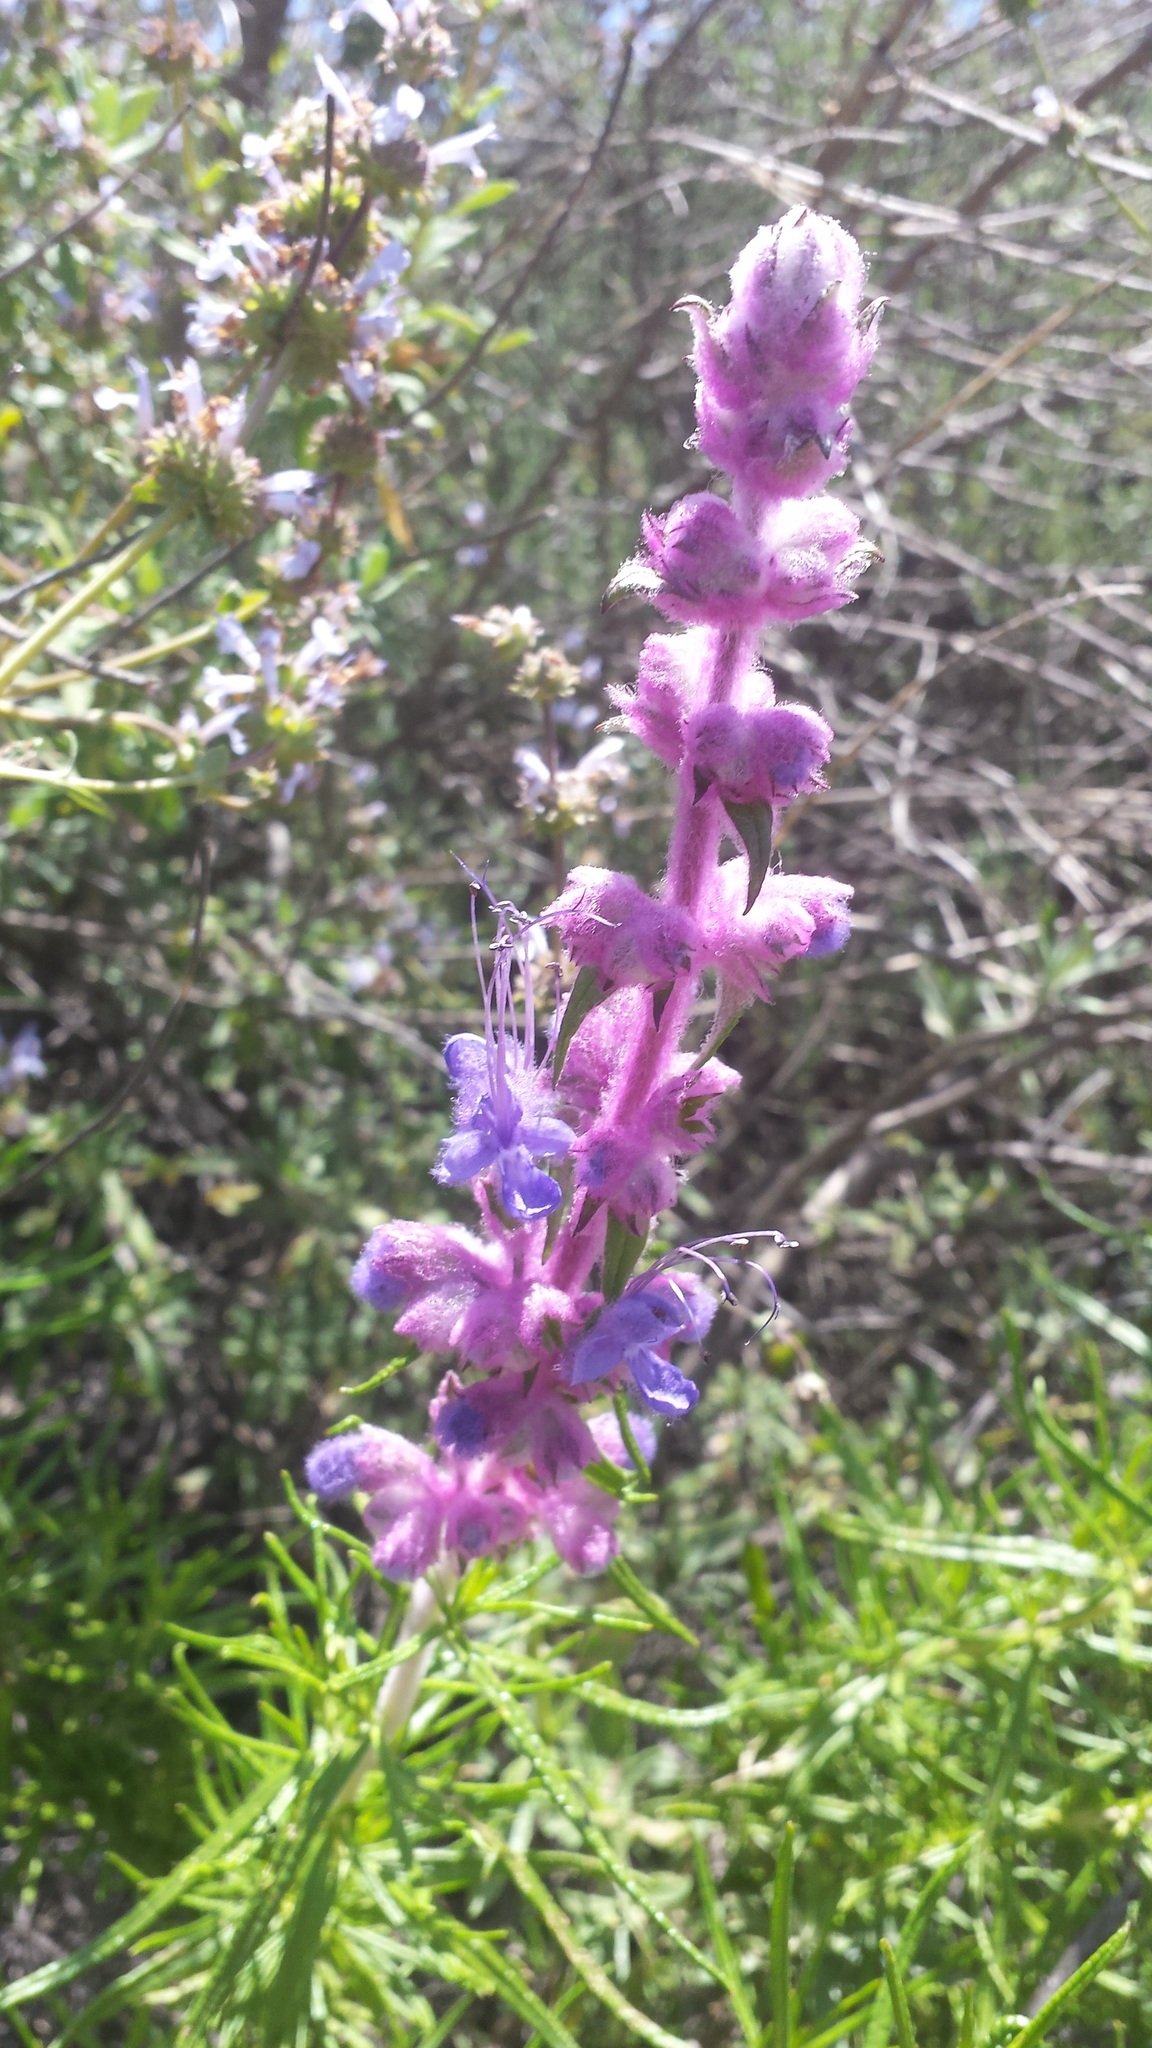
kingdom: Plantae
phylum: Tracheophyta
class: Magnoliopsida
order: Lamiales
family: Lamiaceae
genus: Trichostema
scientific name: Trichostema lanatum
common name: Woolly bluecurls
